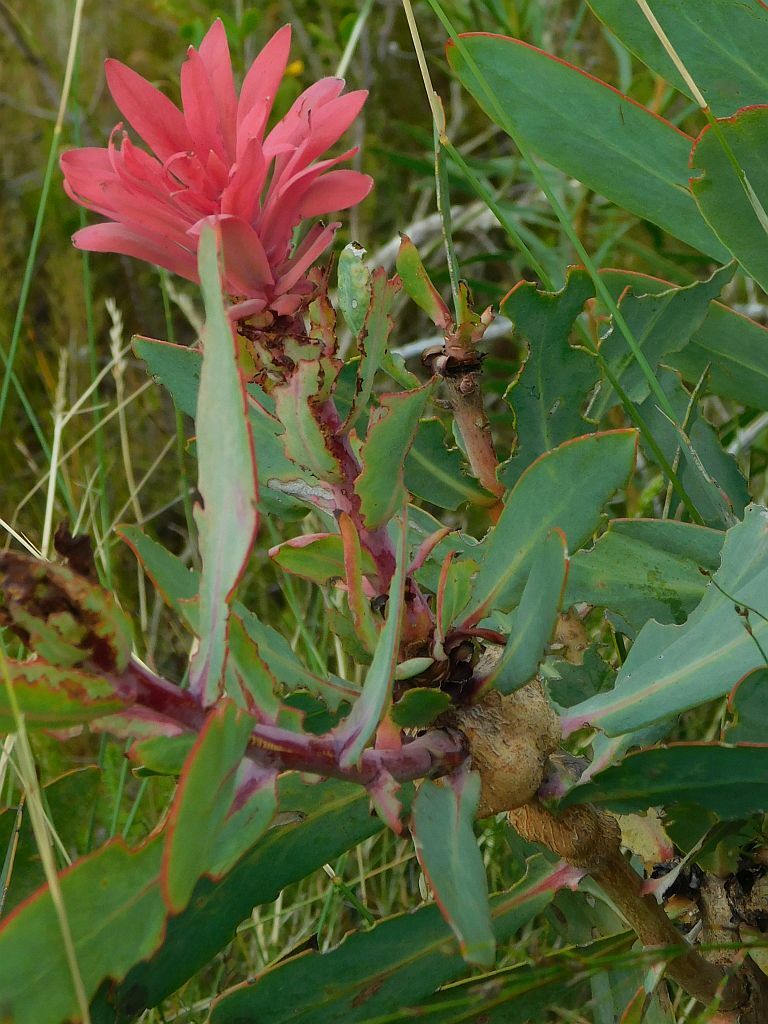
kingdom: Plantae
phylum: Tracheophyta
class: Magnoliopsida
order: Proteales
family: Proteaceae
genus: Protea
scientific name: Protea nitida
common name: Tree protea
